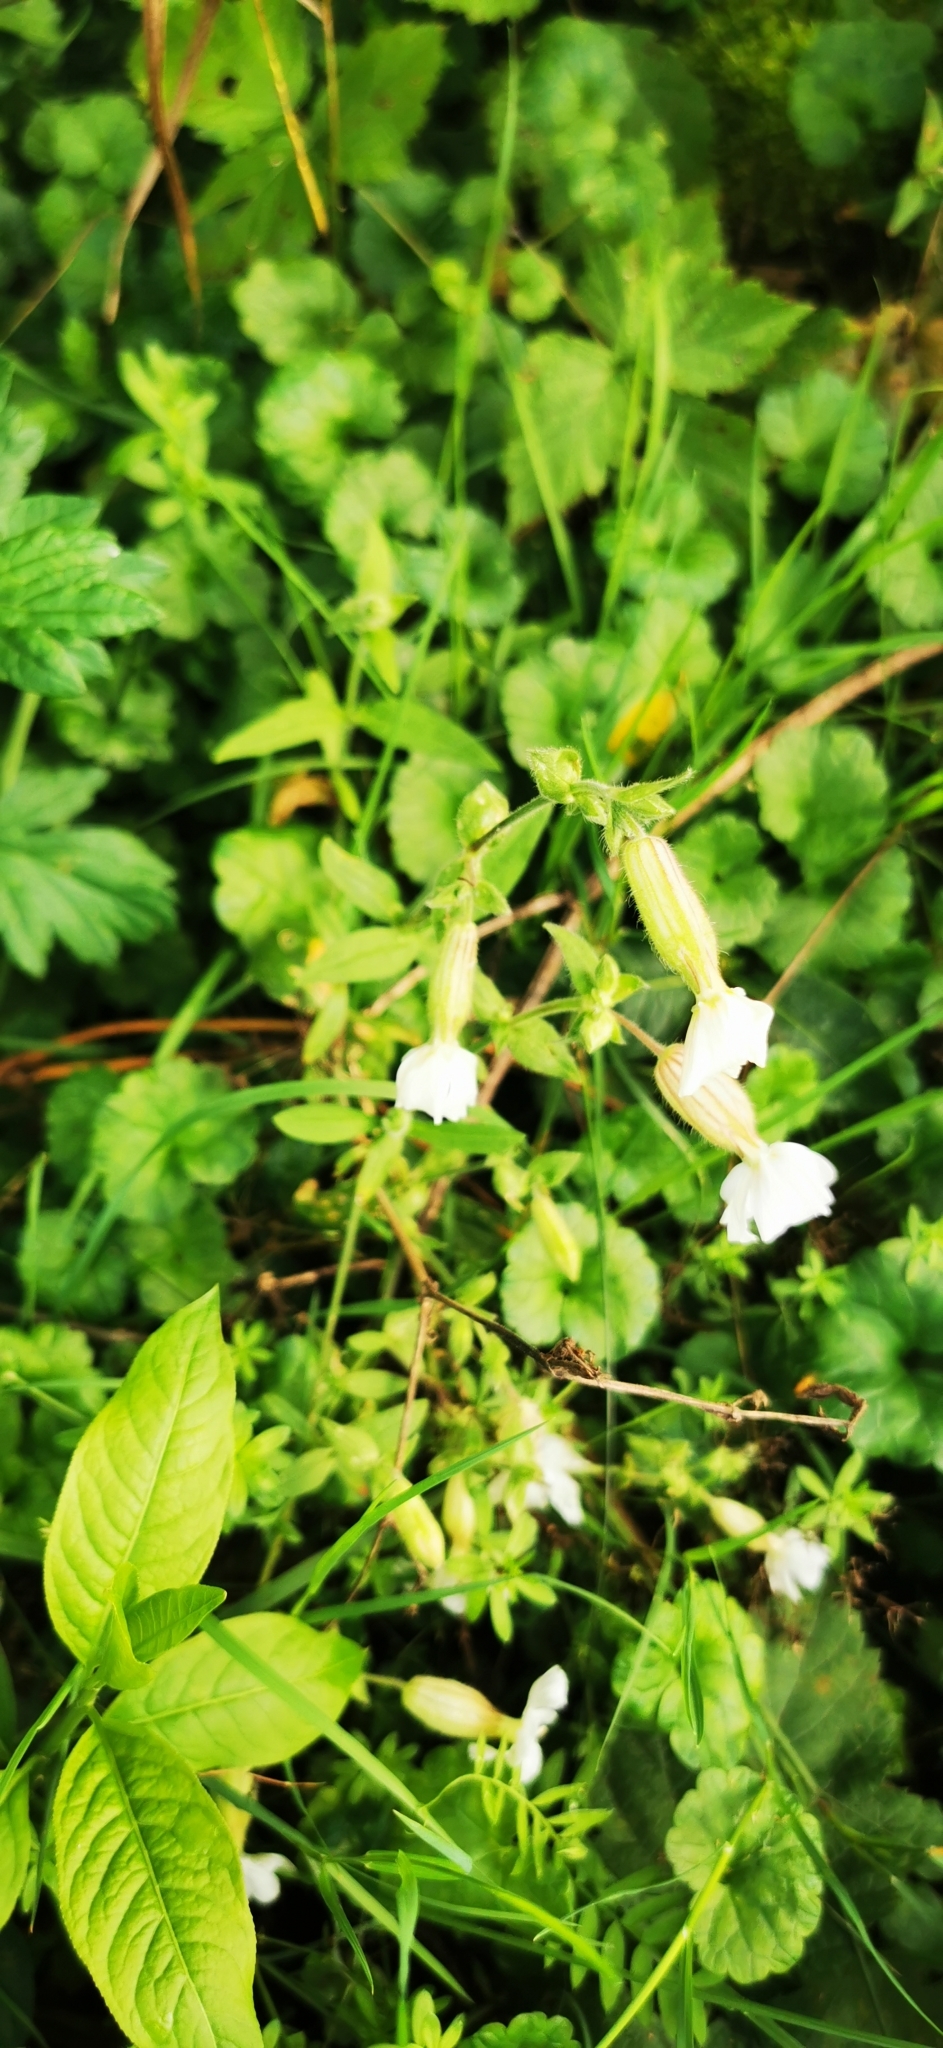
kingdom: Plantae
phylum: Tracheophyta
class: Magnoliopsida
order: Caryophyllales
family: Caryophyllaceae
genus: Silene
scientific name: Silene latifolia
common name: White campion
